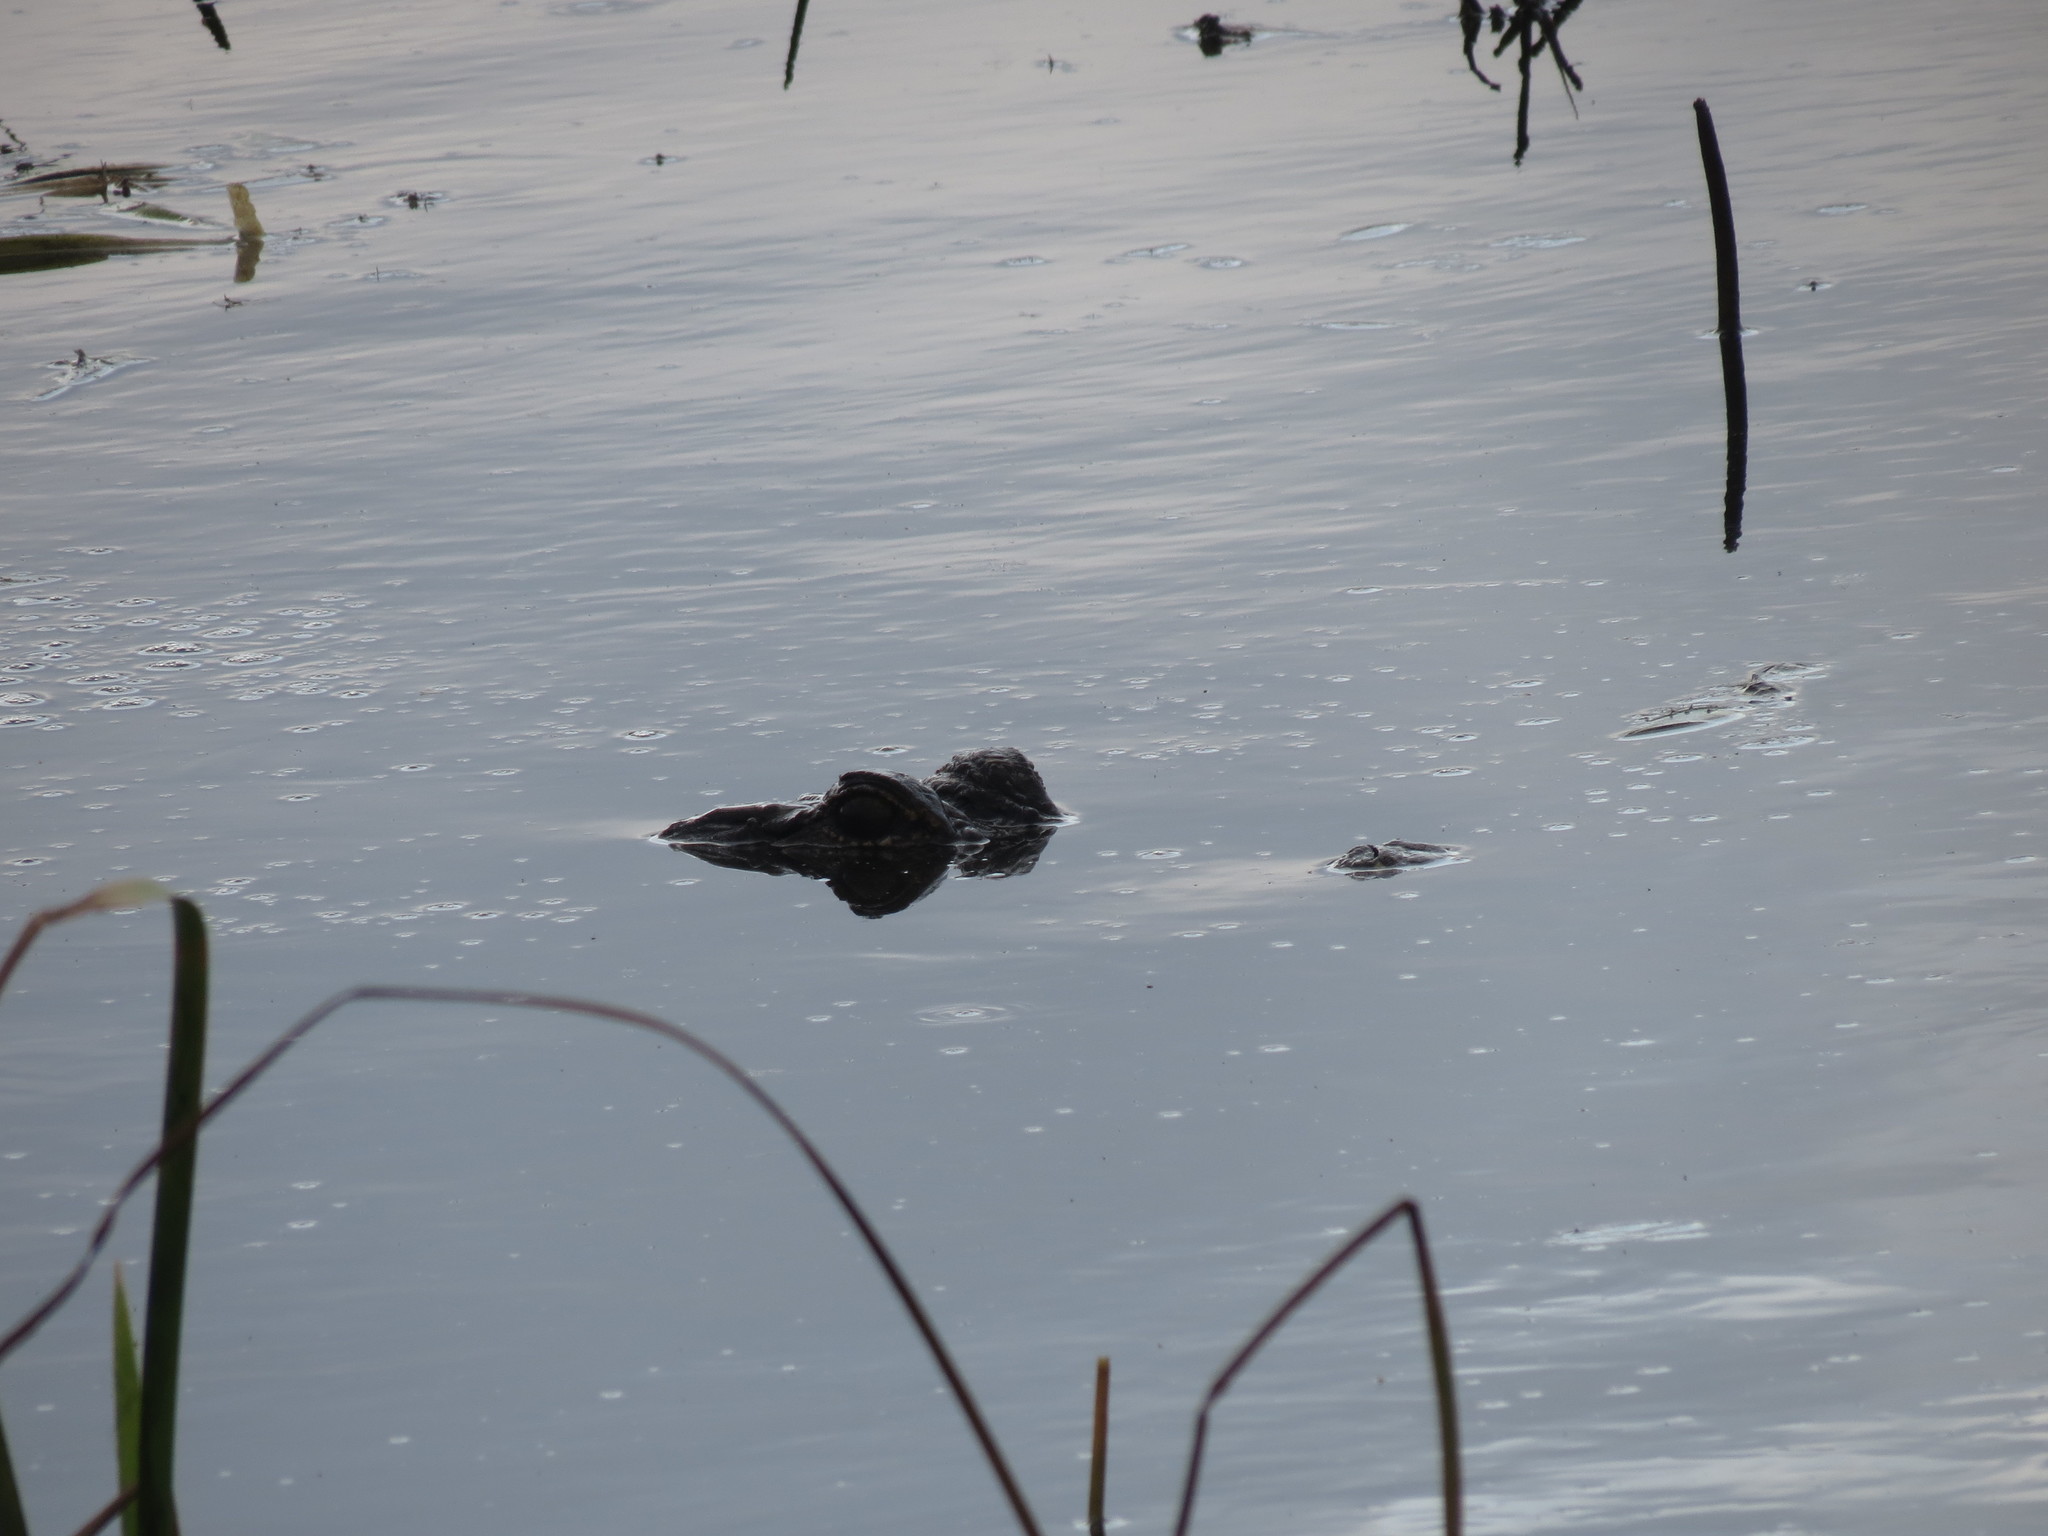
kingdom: Animalia
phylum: Chordata
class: Crocodylia
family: Alligatoridae
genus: Alligator
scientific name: Alligator mississippiensis
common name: American alligator
